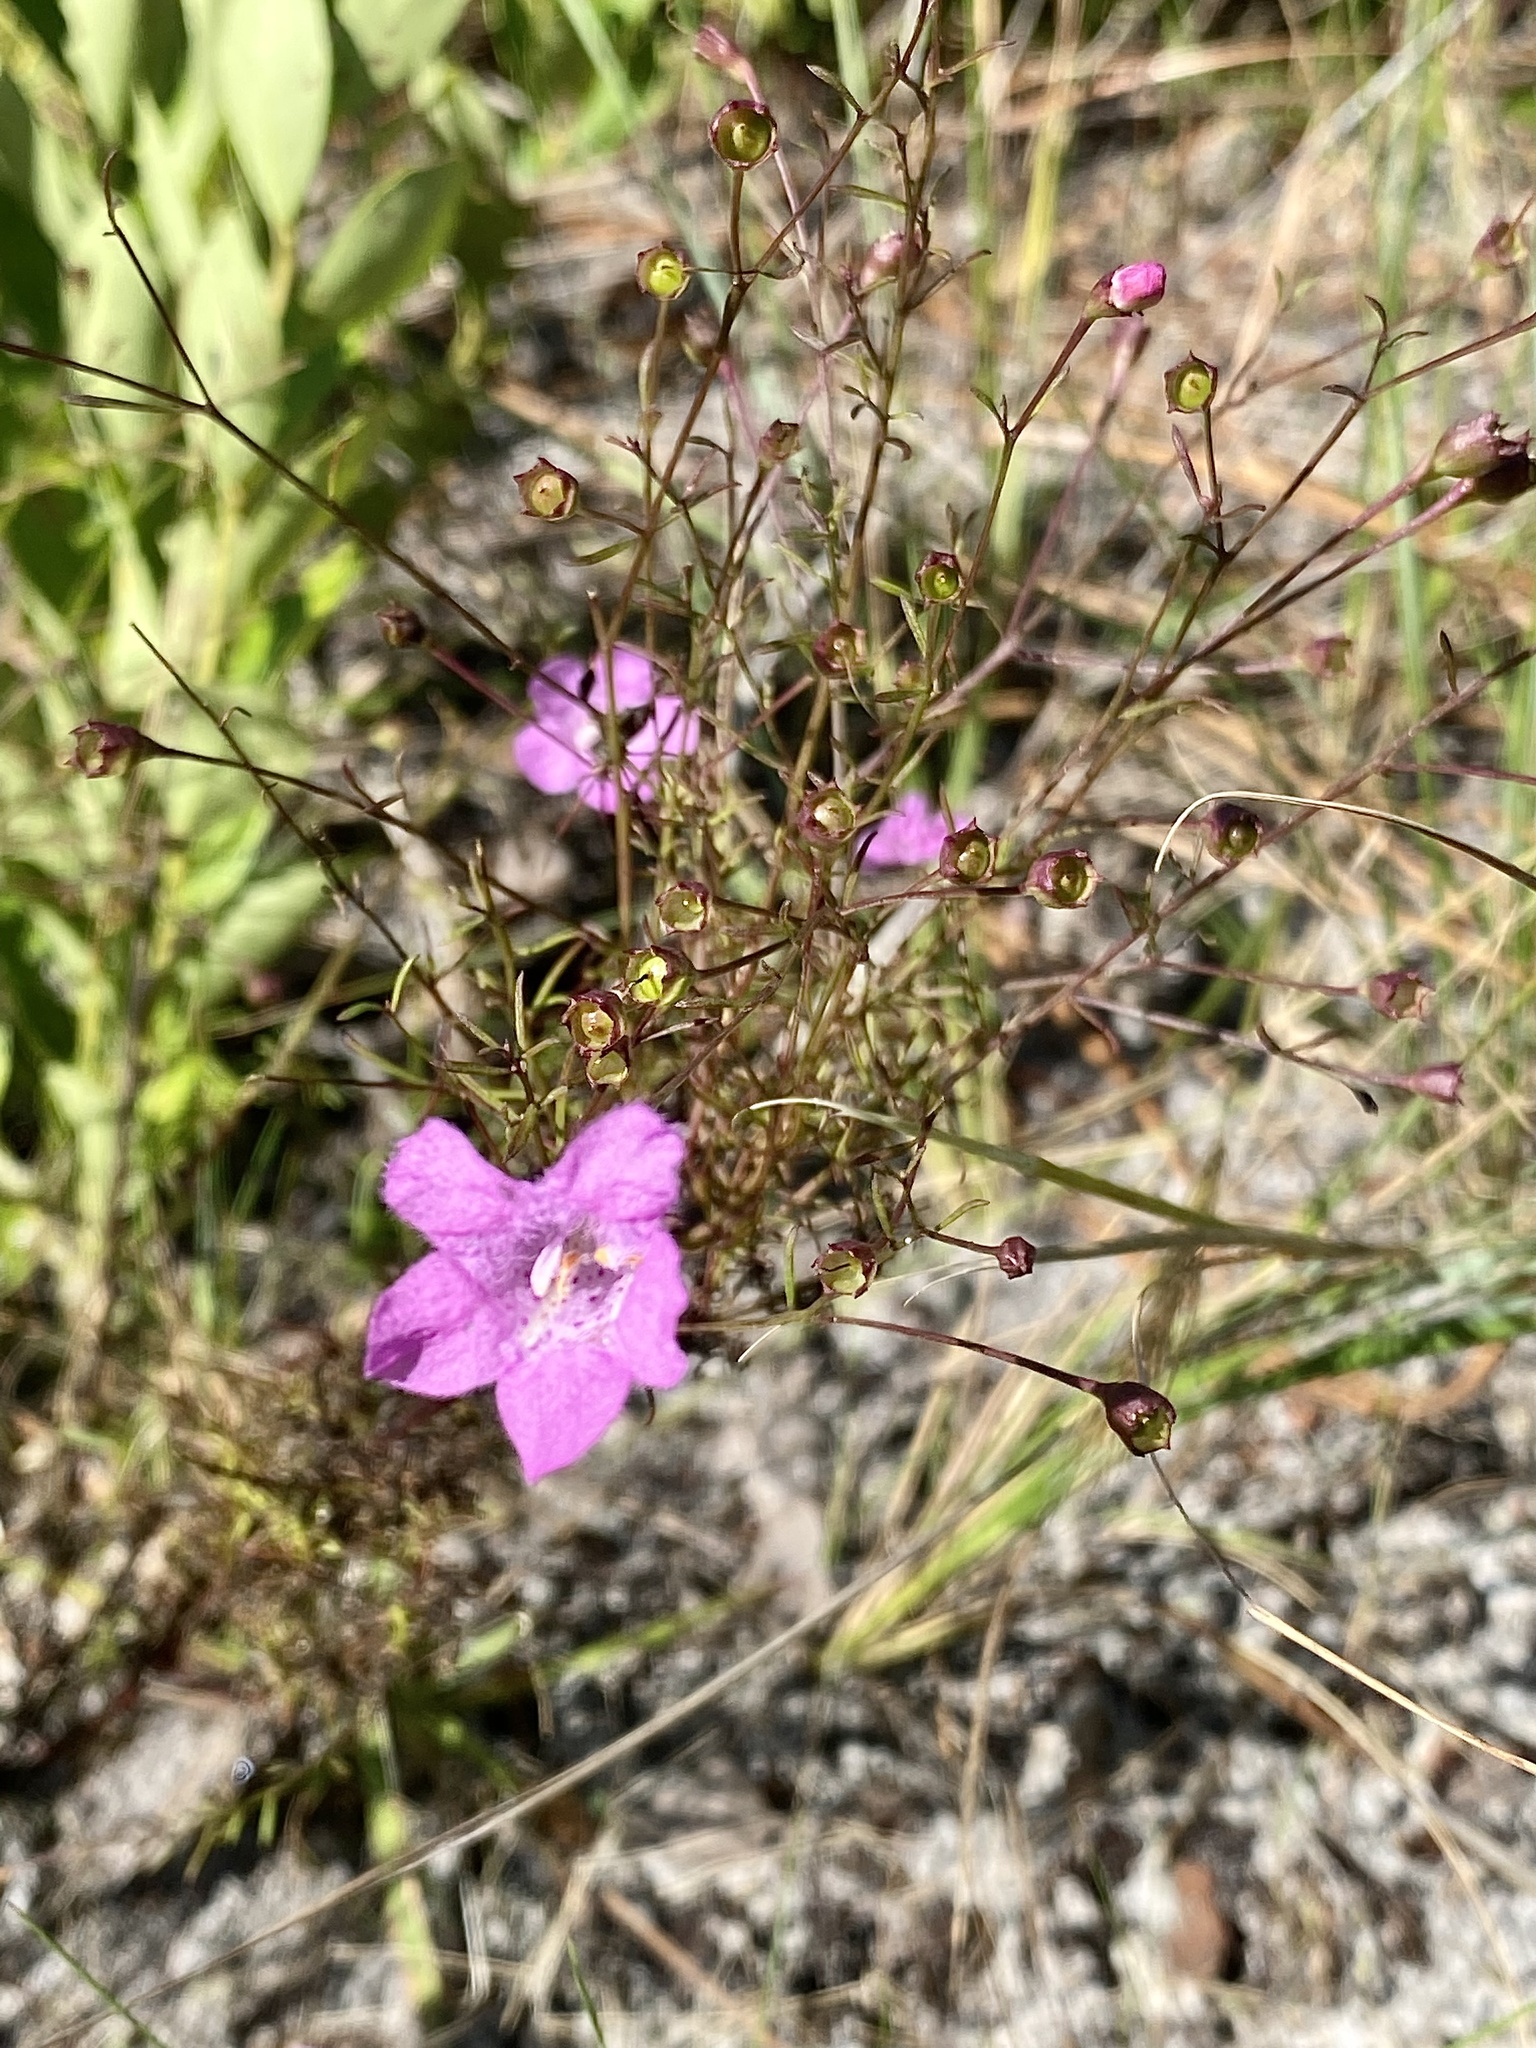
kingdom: Plantae
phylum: Tracheophyta
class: Magnoliopsida
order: Lamiales
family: Orobanchaceae
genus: Agalinis
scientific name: Agalinis filifolia
